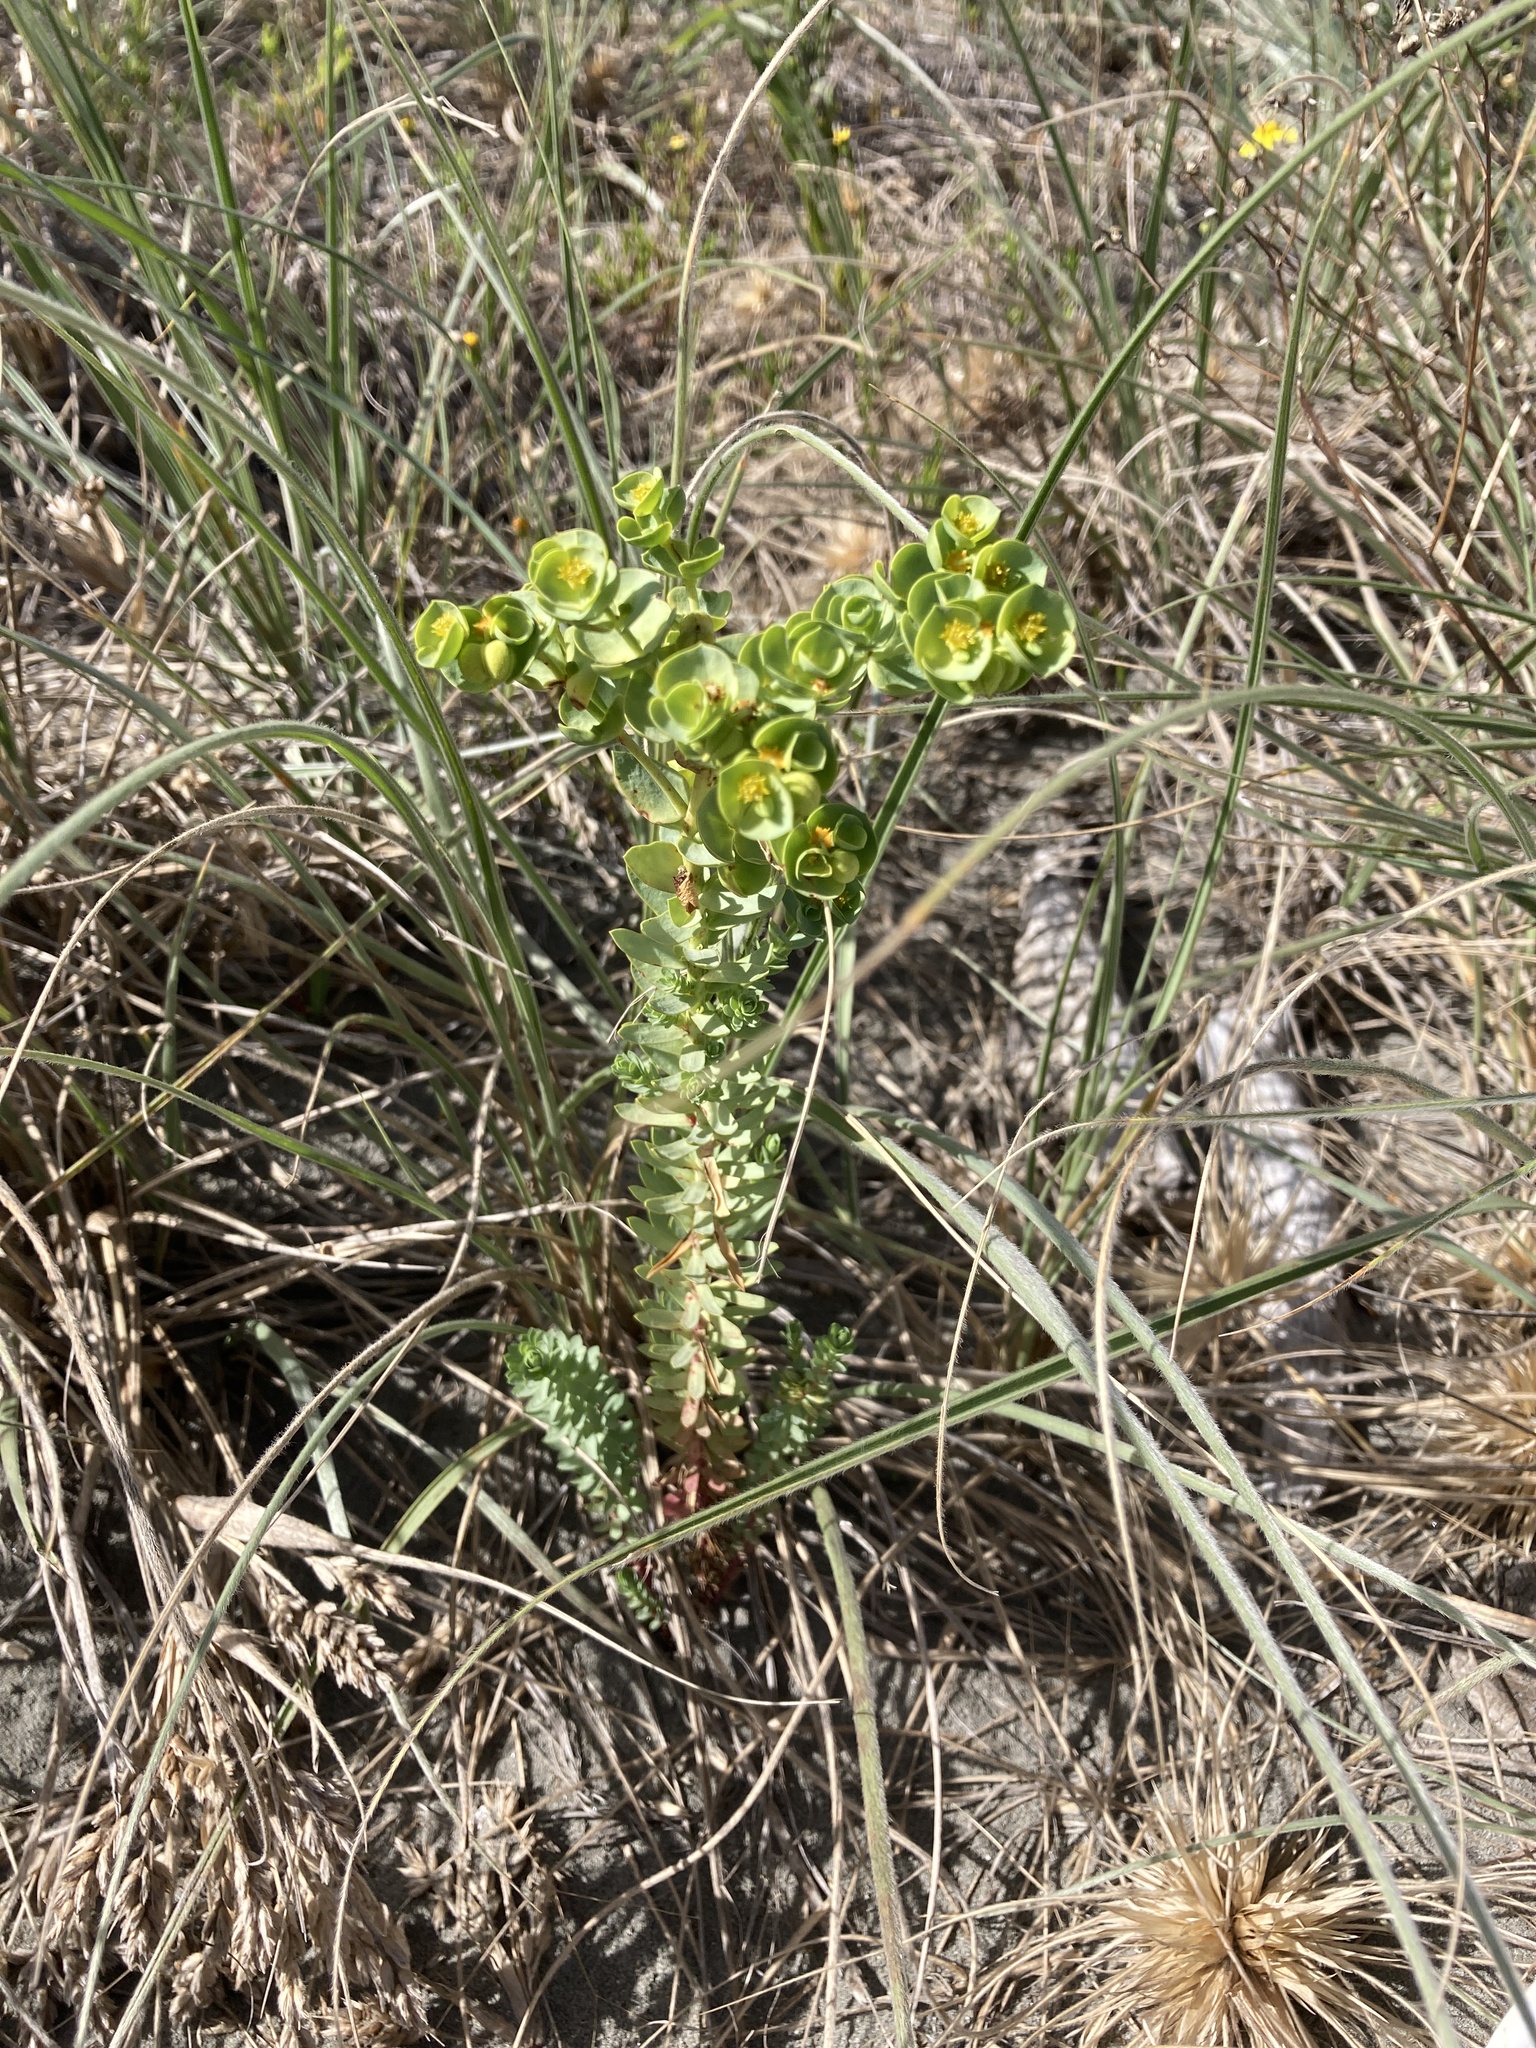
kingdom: Plantae
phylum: Tracheophyta
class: Magnoliopsida
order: Malpighiales
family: Euphorbiaceae
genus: Euphorbia
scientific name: Euphorbia paralias
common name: Sea spurge
